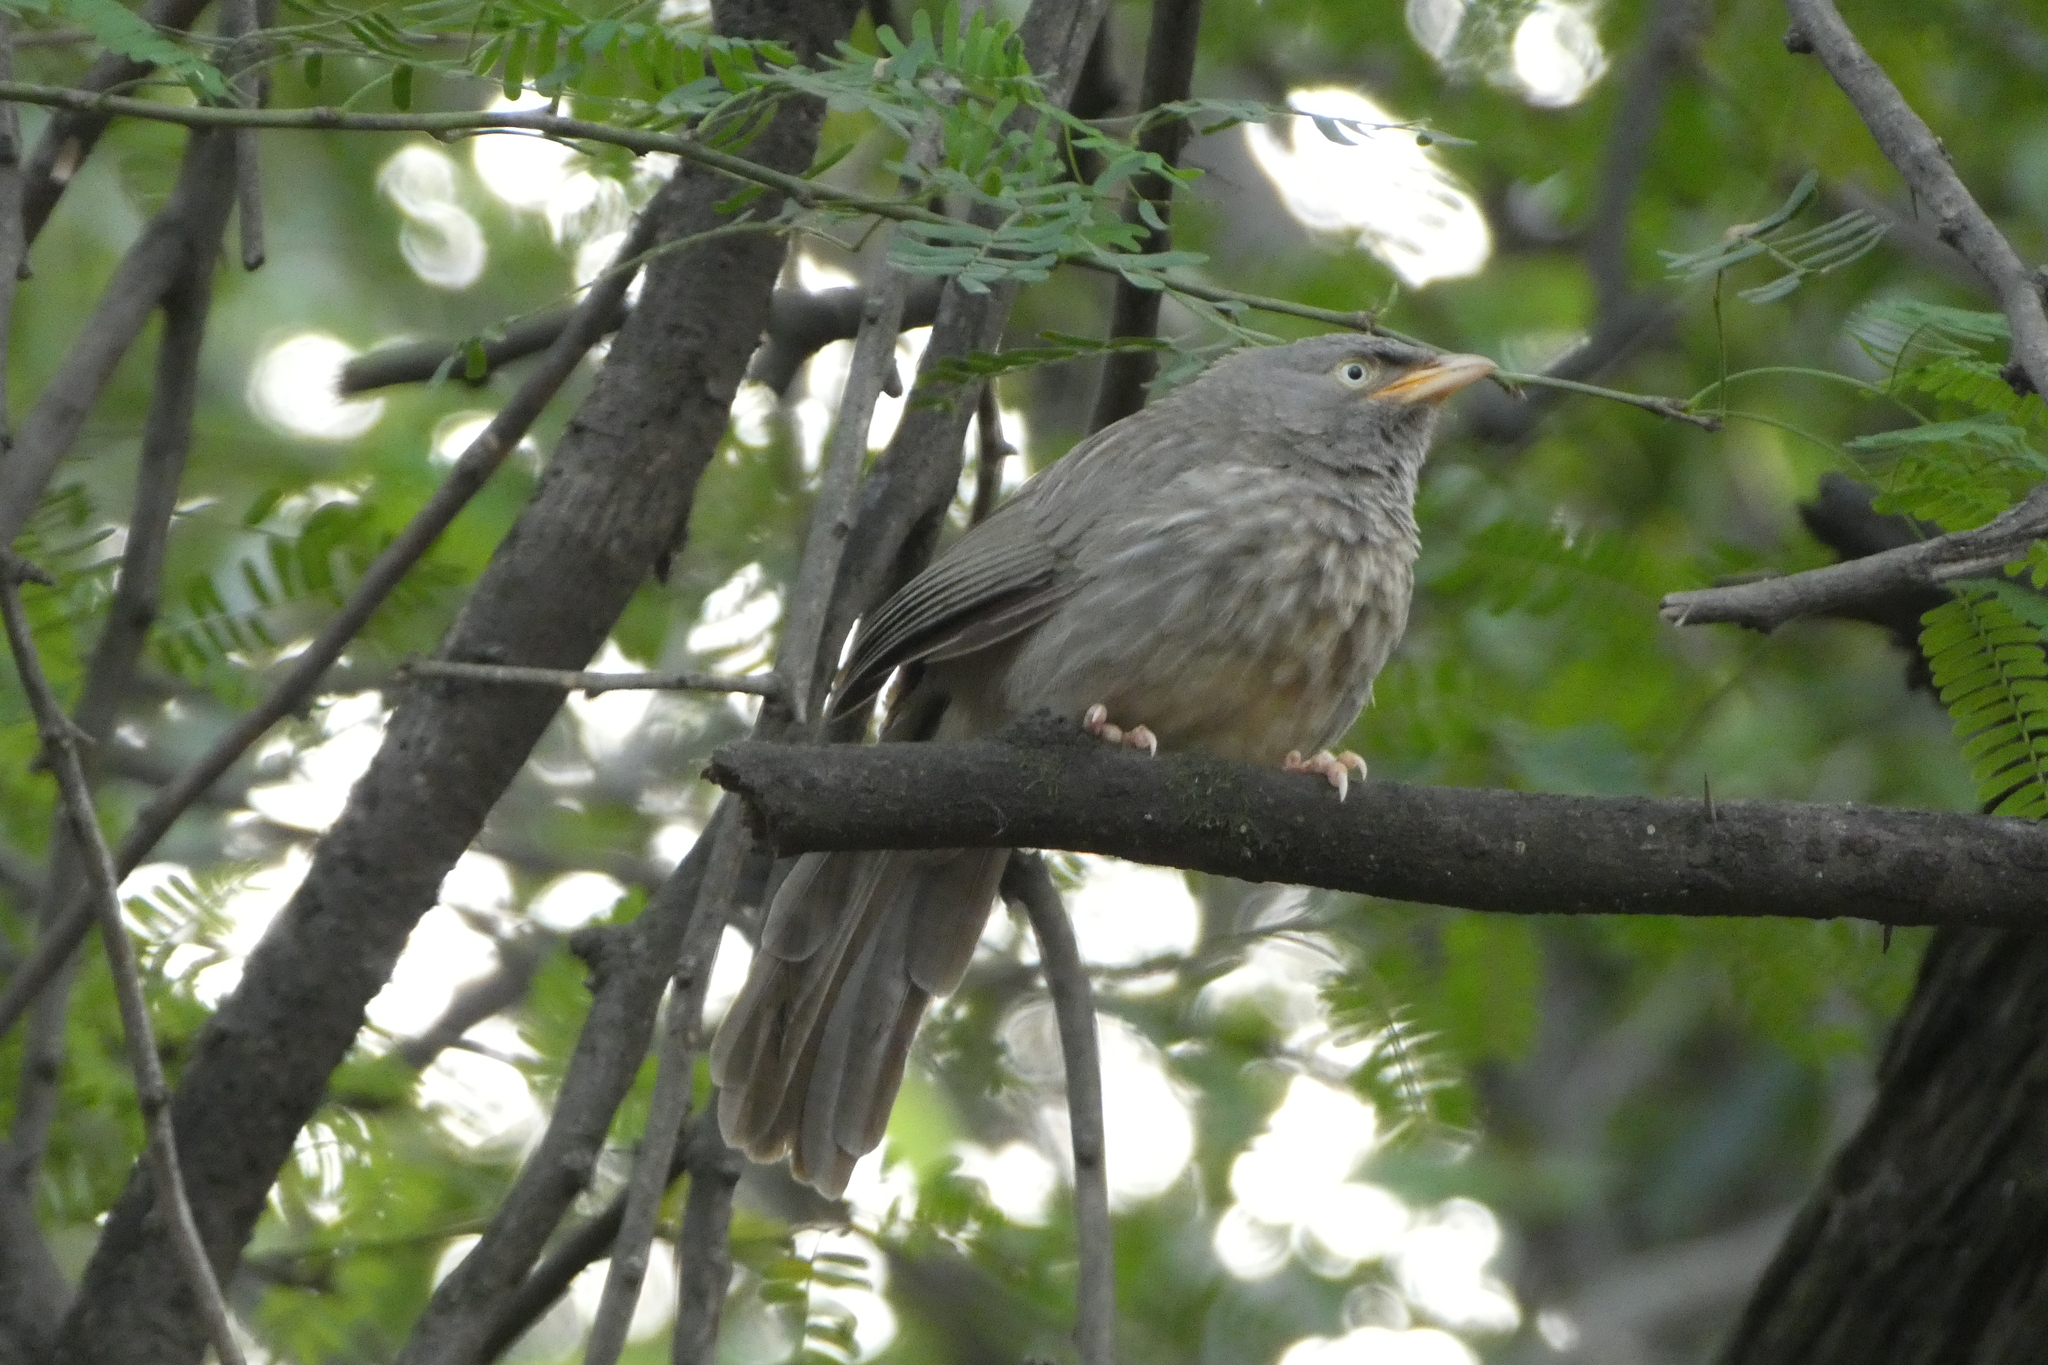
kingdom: Animalia
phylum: Chordata
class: Aves
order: Passeriformes
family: Leiothrichidae
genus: Turdoides
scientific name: Turdoides striata
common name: Jungle babbler
